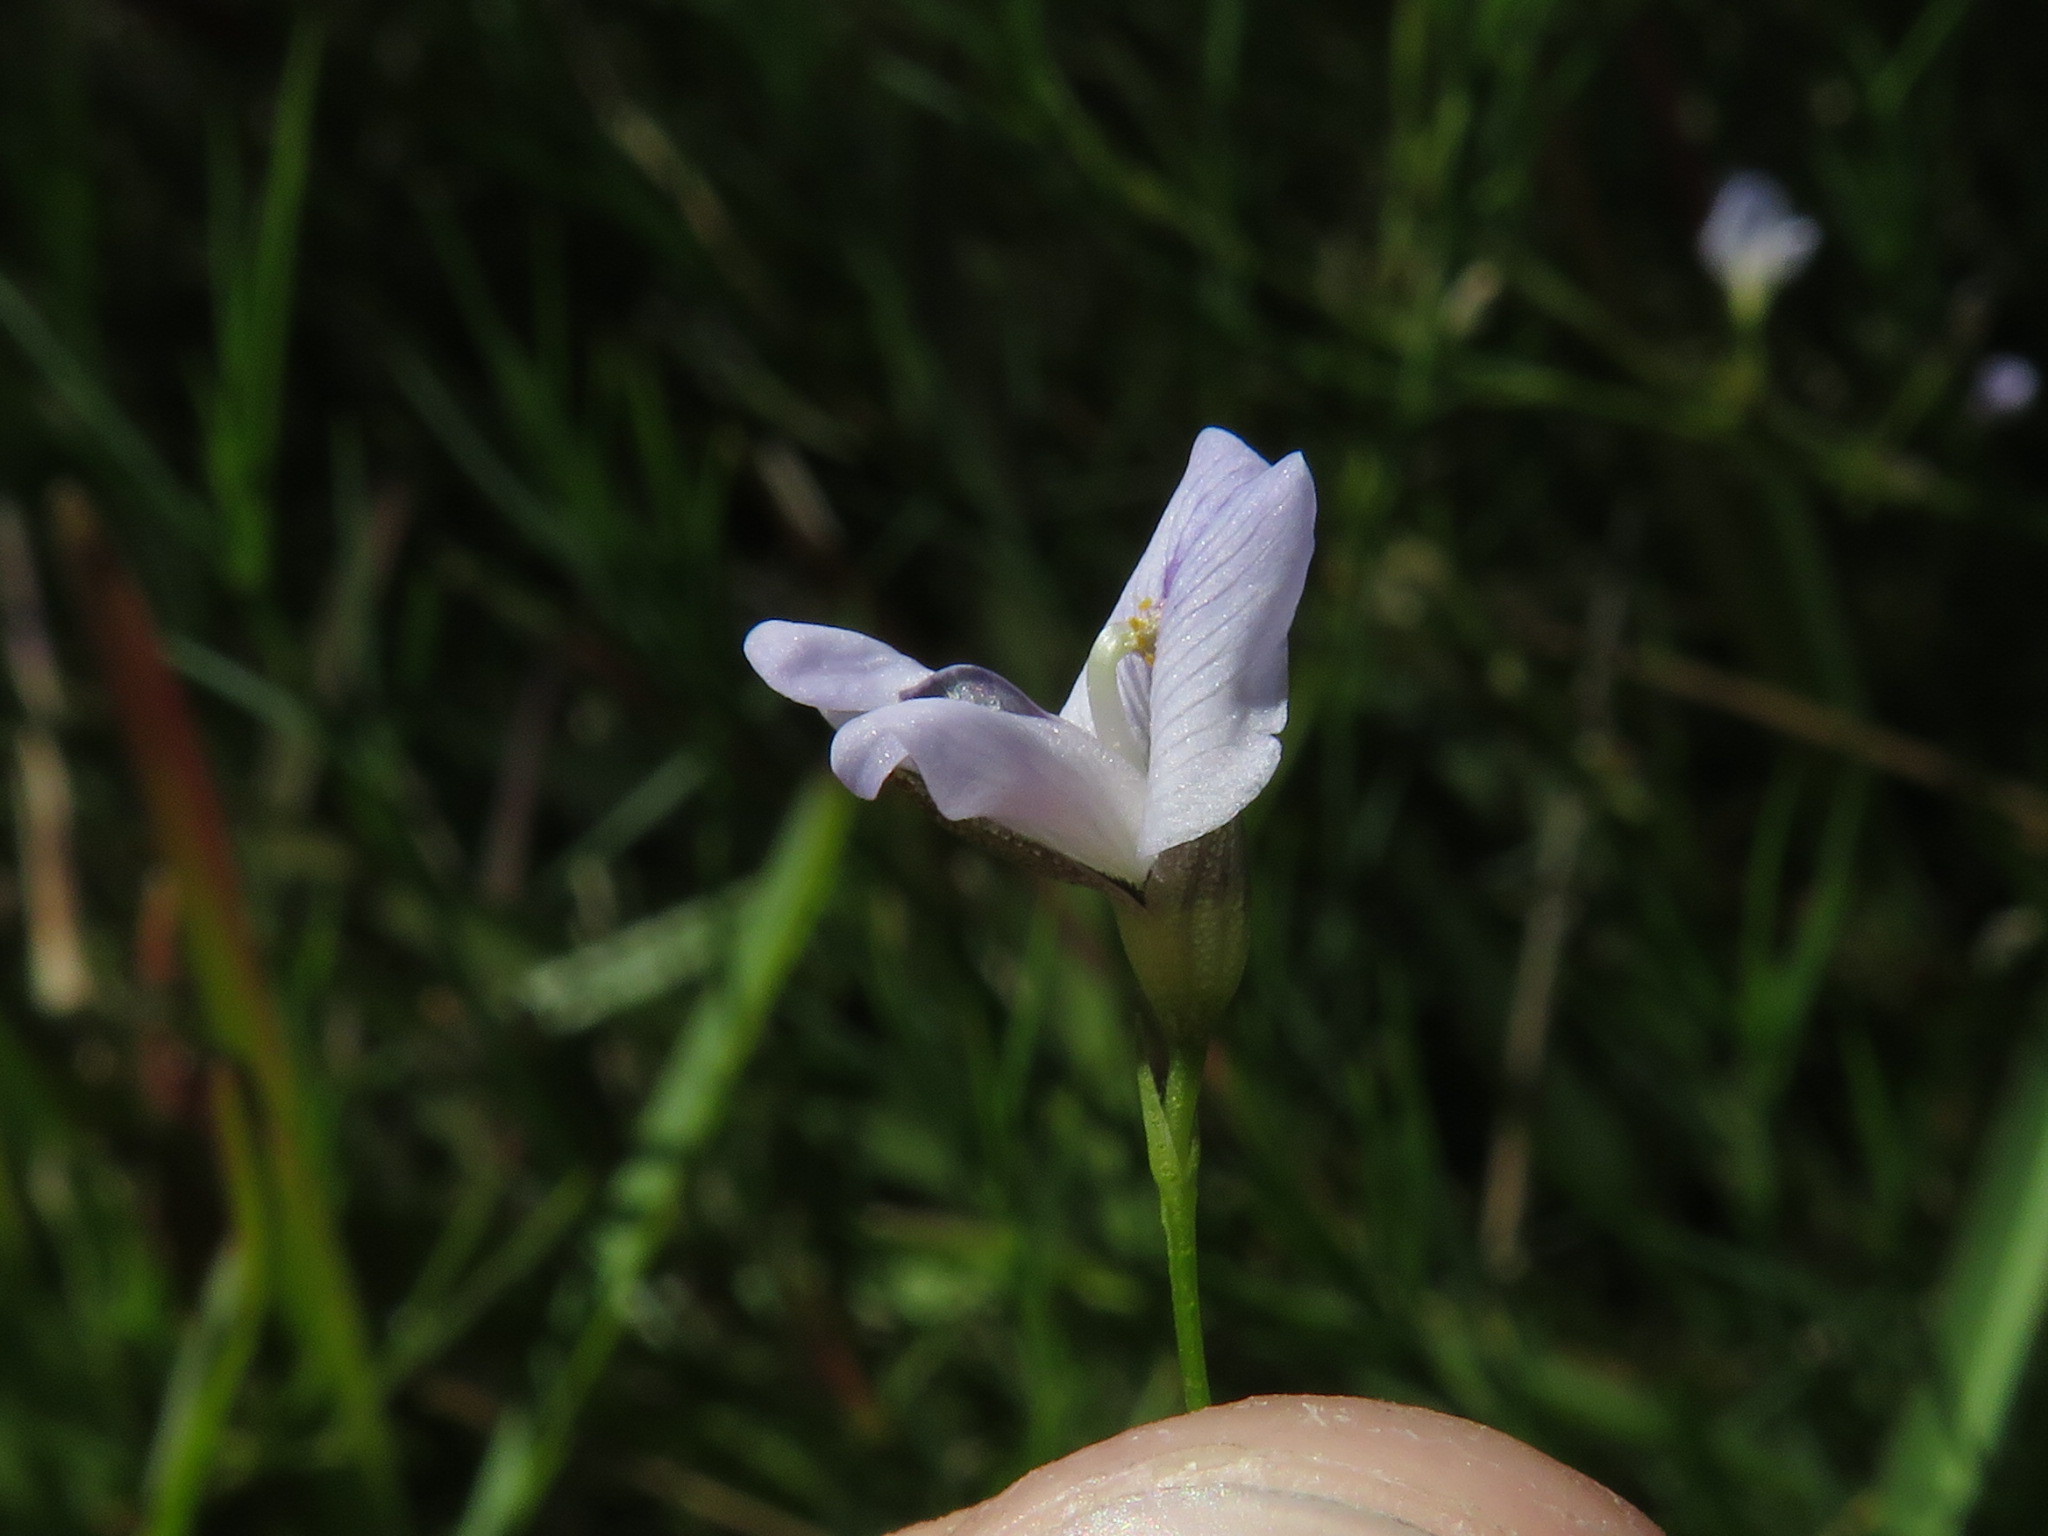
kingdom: Plantae
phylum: Tracheophyta
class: Magnoliopsida
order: Fabales
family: Fabaceae
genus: Psoralea
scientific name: Psoralea fascicularis
